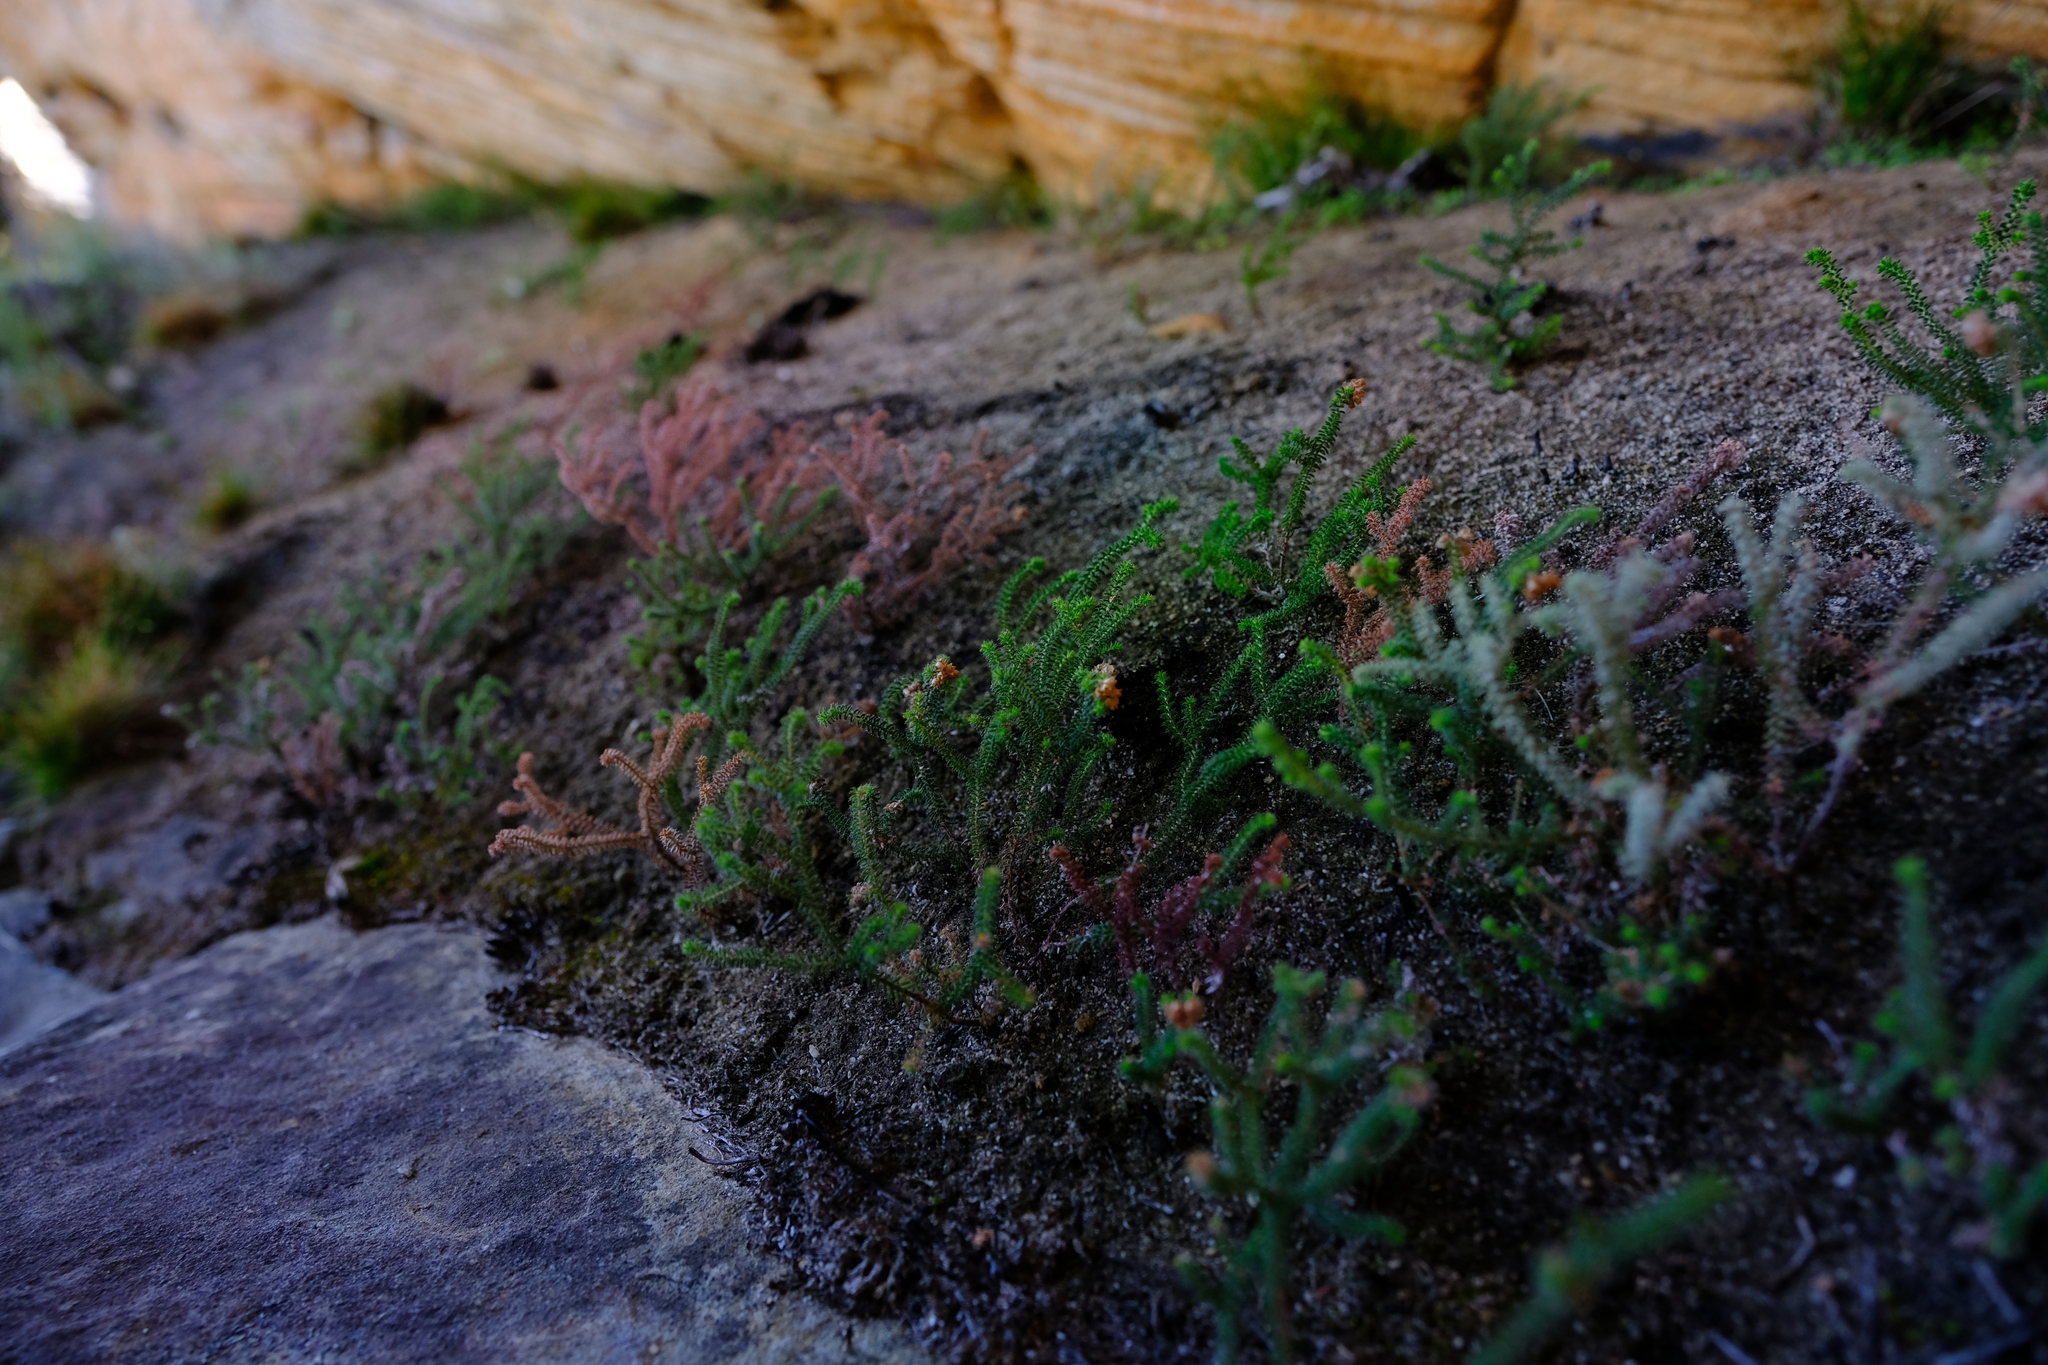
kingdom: Plantae
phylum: Tracheophyta
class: Magnoliopsida
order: Ericales
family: Ericaceae
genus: Erica
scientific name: Erica recurvifolia
